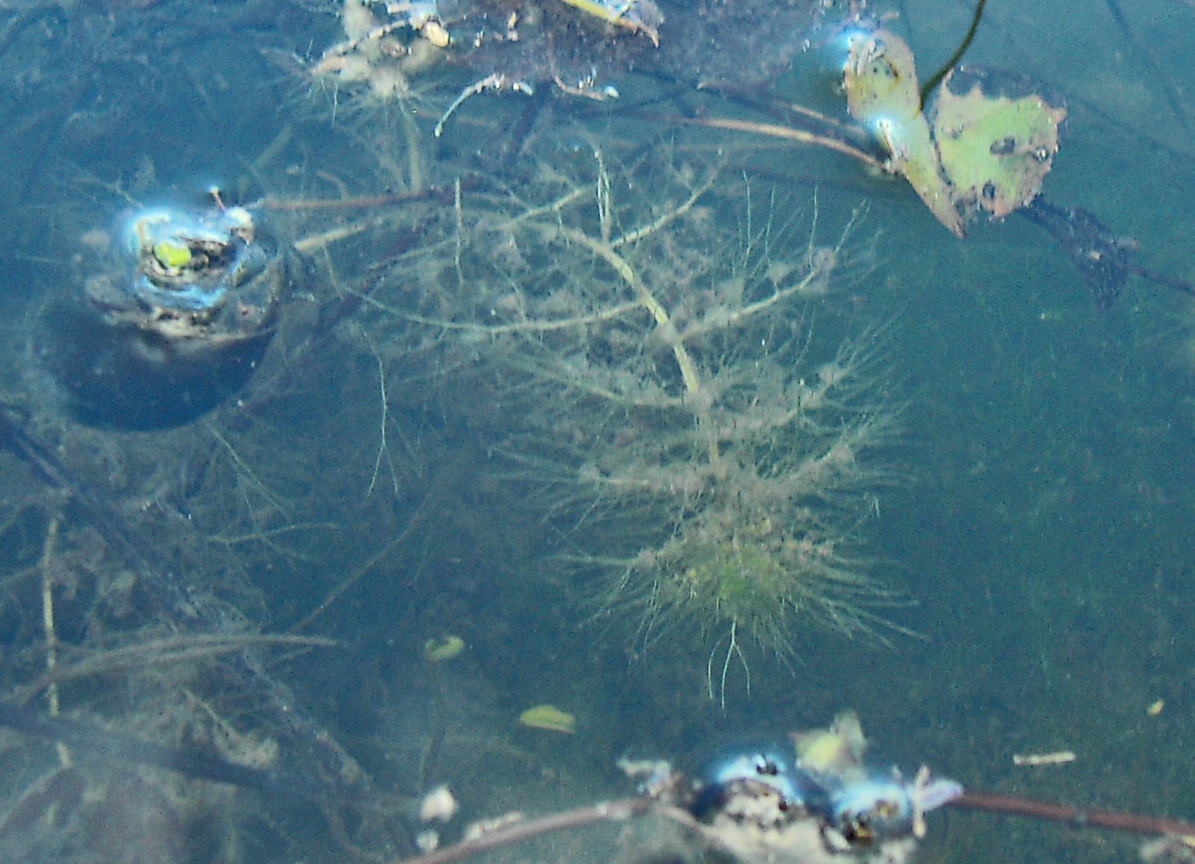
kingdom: Plantae
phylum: Tracheophyta
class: Magnoliopsida
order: Lamiales
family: Lentibulariaceae
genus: Utricularia
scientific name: Utricularia stellaris
